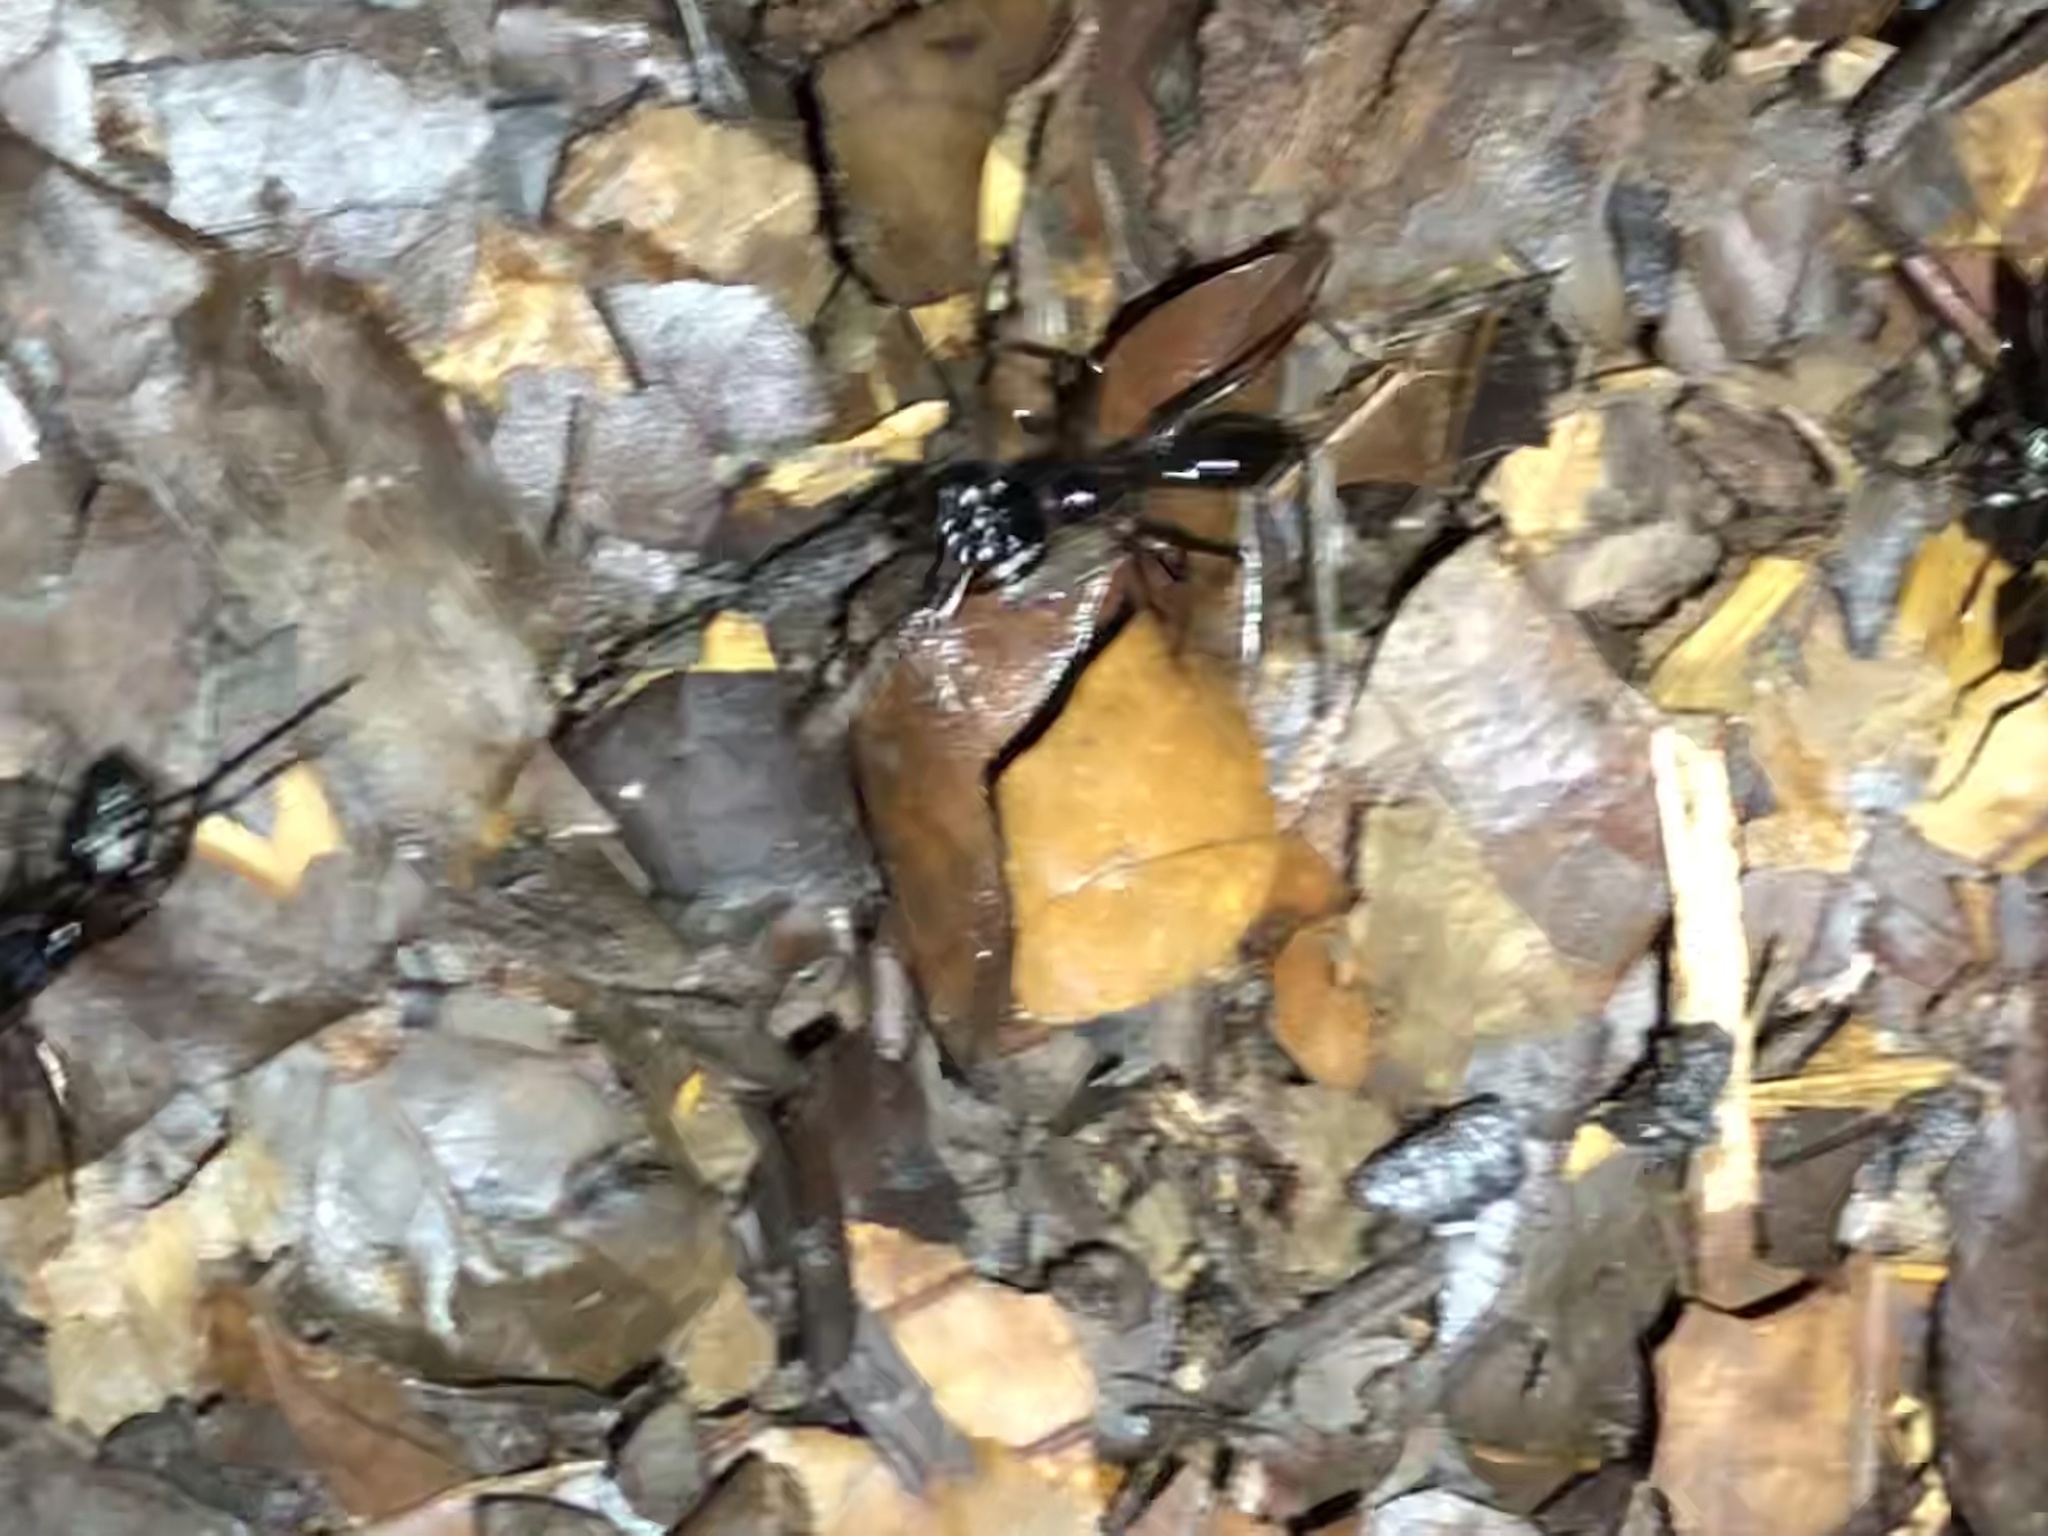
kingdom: Animalia
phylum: Arthropoda
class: Insecta
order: Hymenoptera
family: Formicidae
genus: Pachycondyla
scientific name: Pachycondyla commutata
